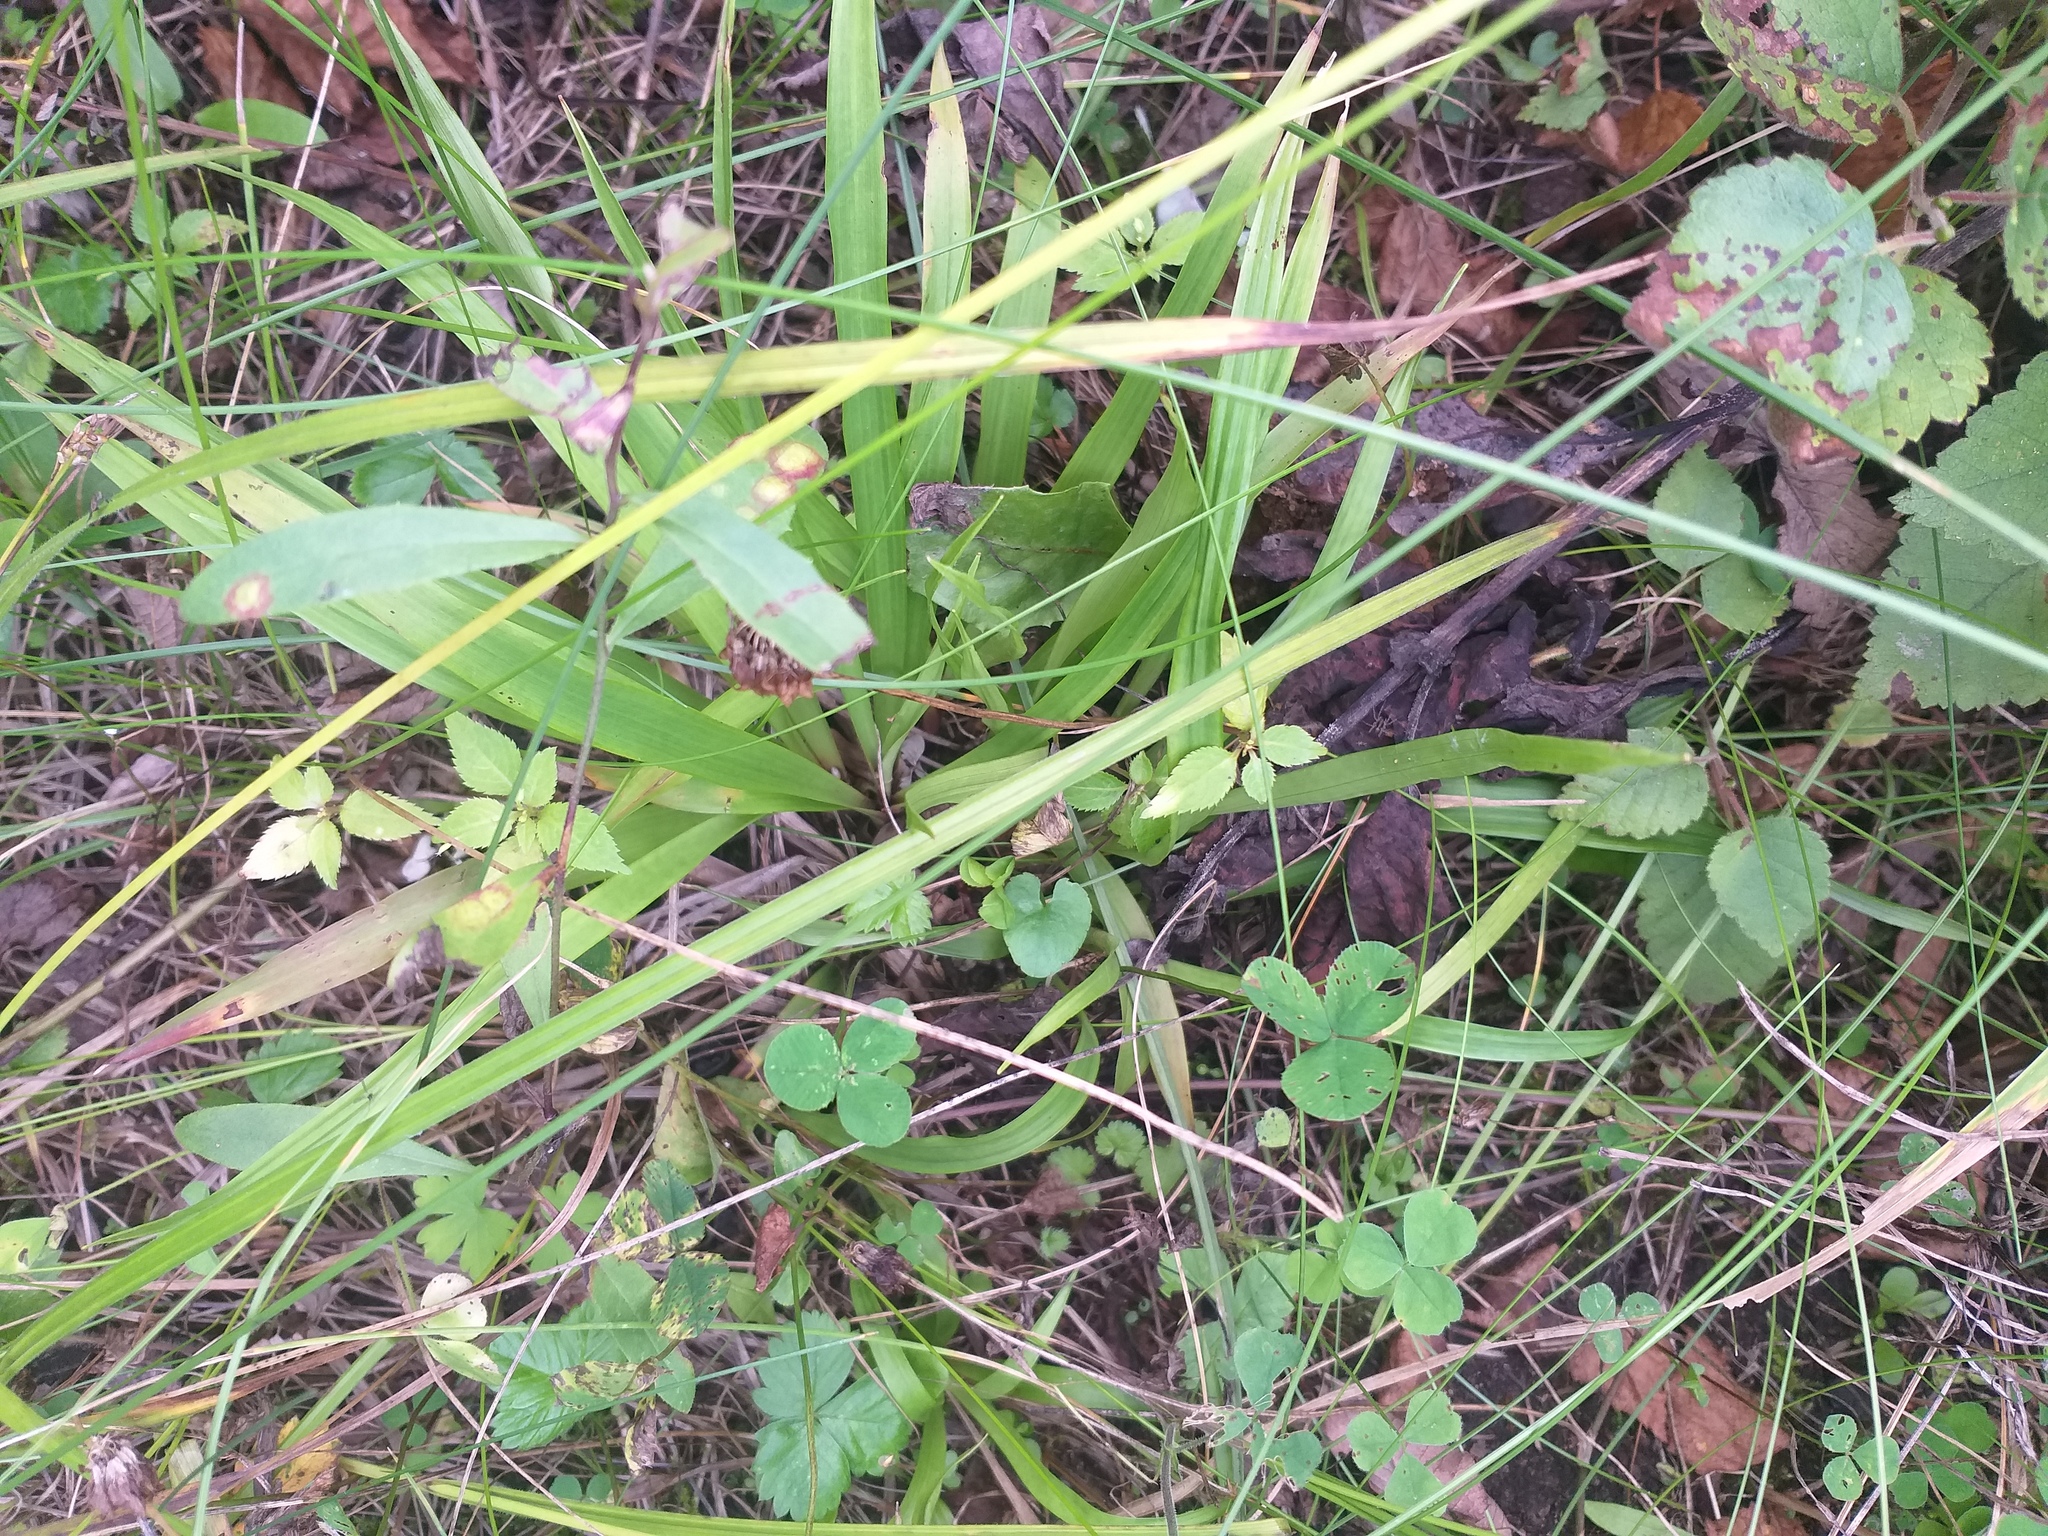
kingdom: Plantae
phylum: Tracheophyta
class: Liliopsida
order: Poales
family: Juncaceae
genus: Luzula
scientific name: Luzula pilosa
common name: Hairy wood-rush
